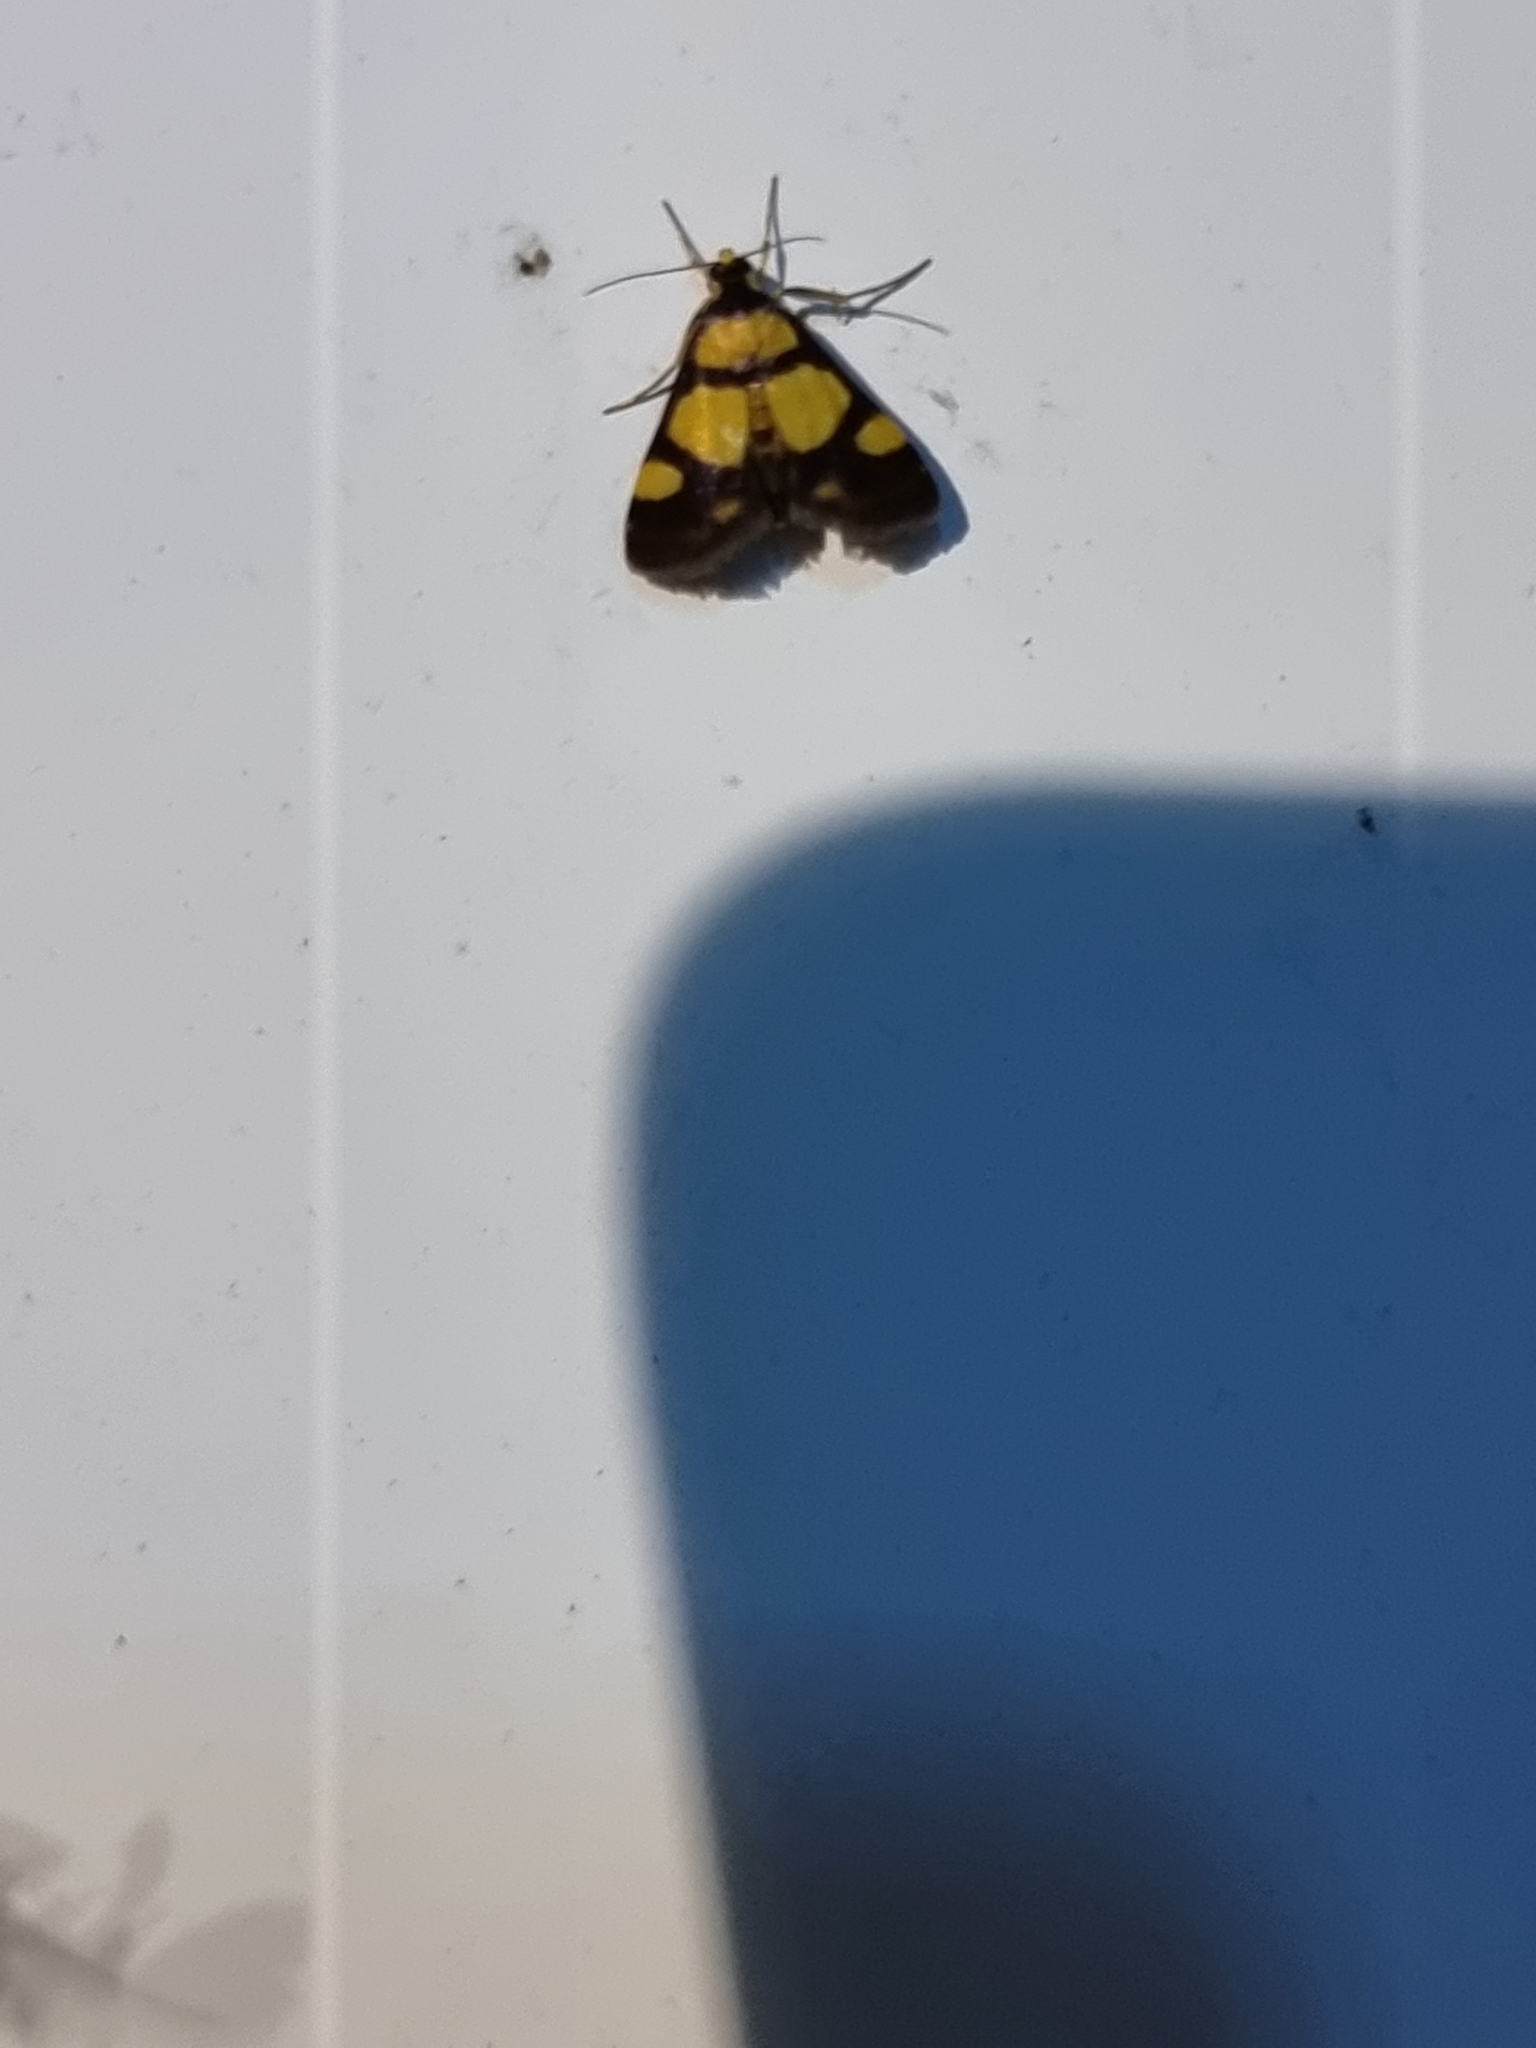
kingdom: Animalia
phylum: Arthropoda
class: Insecta
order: Lepidoptera
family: Crambidae
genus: Deuterarcha
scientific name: Deuterarcha xanthomela
